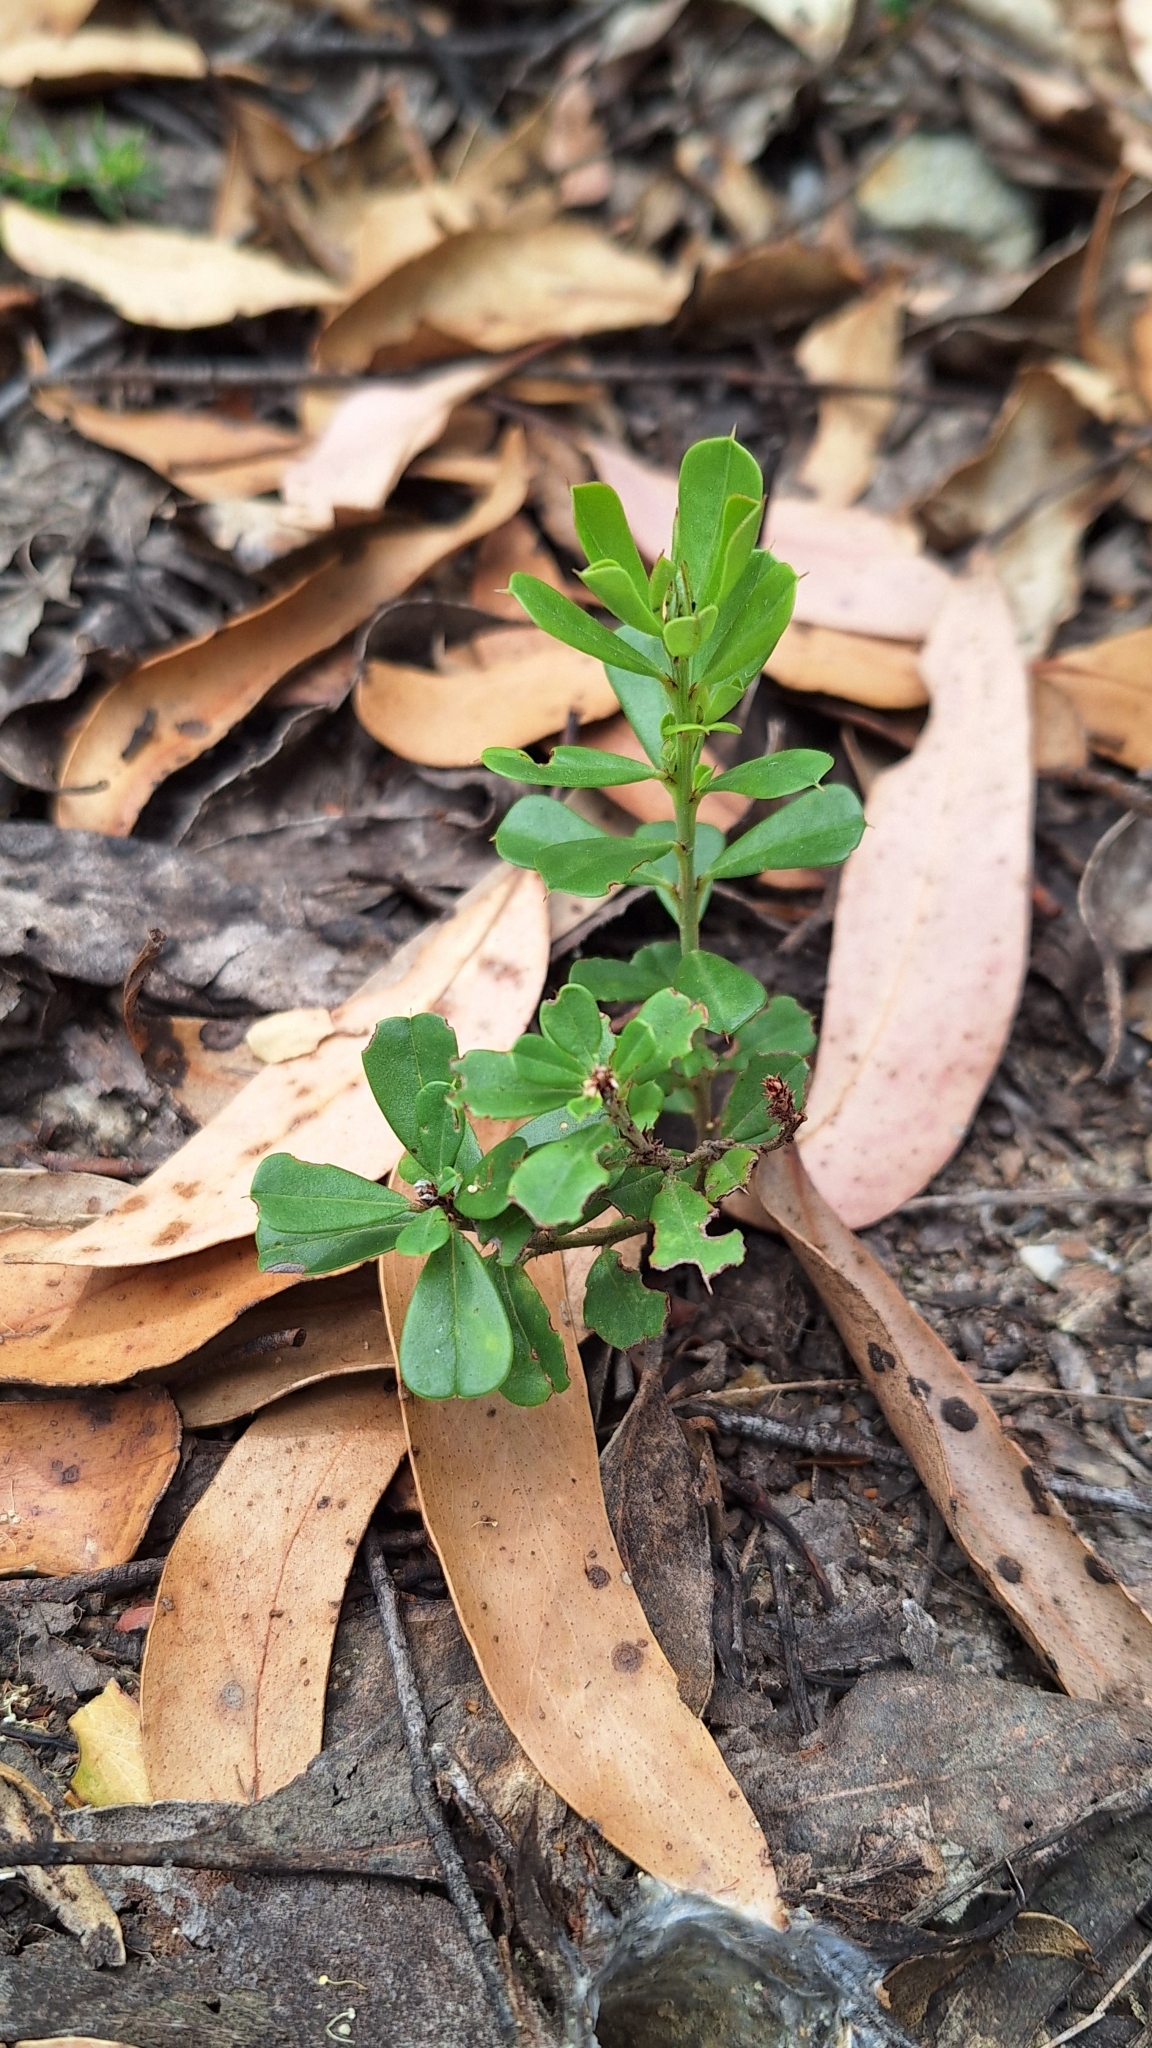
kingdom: Plantae
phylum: Tracheophyta
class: Magnoliopsida
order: Fabales
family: Fabaceae
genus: Pultenaea
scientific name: Pultenaea daphnoides
